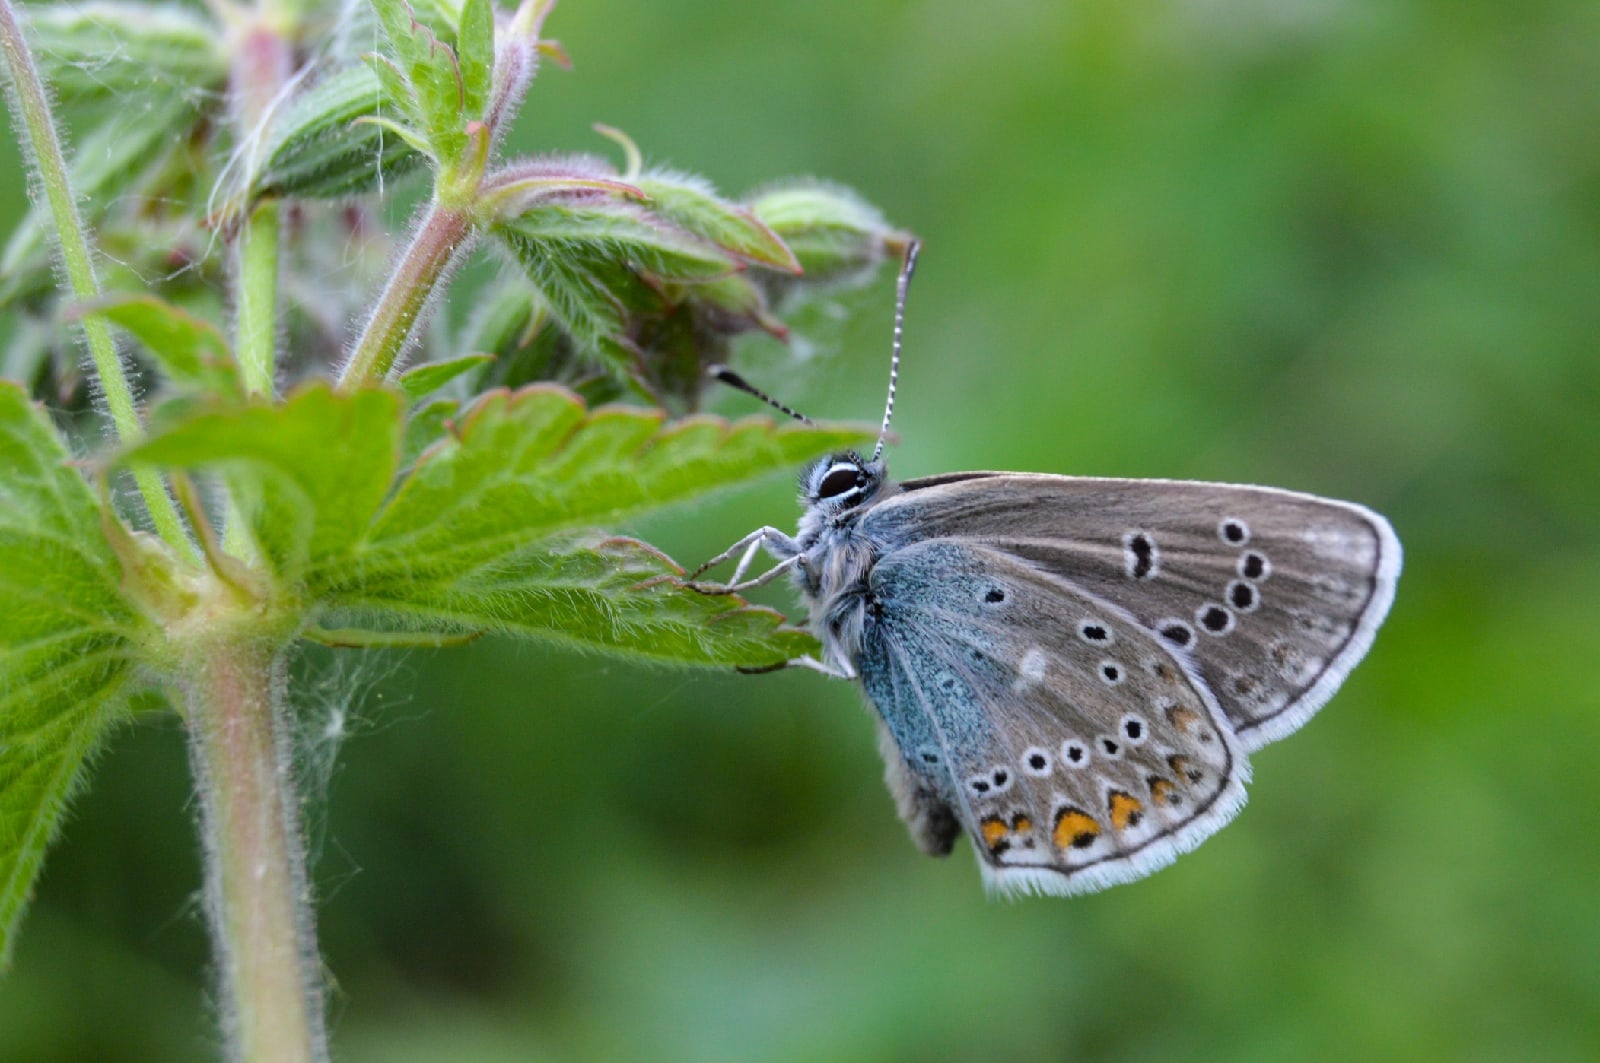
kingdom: Animalia
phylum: Arthropoda
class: Insecta
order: Lepidoptera
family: Lycaenidae
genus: Plebejus
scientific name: Plebejus amanda
